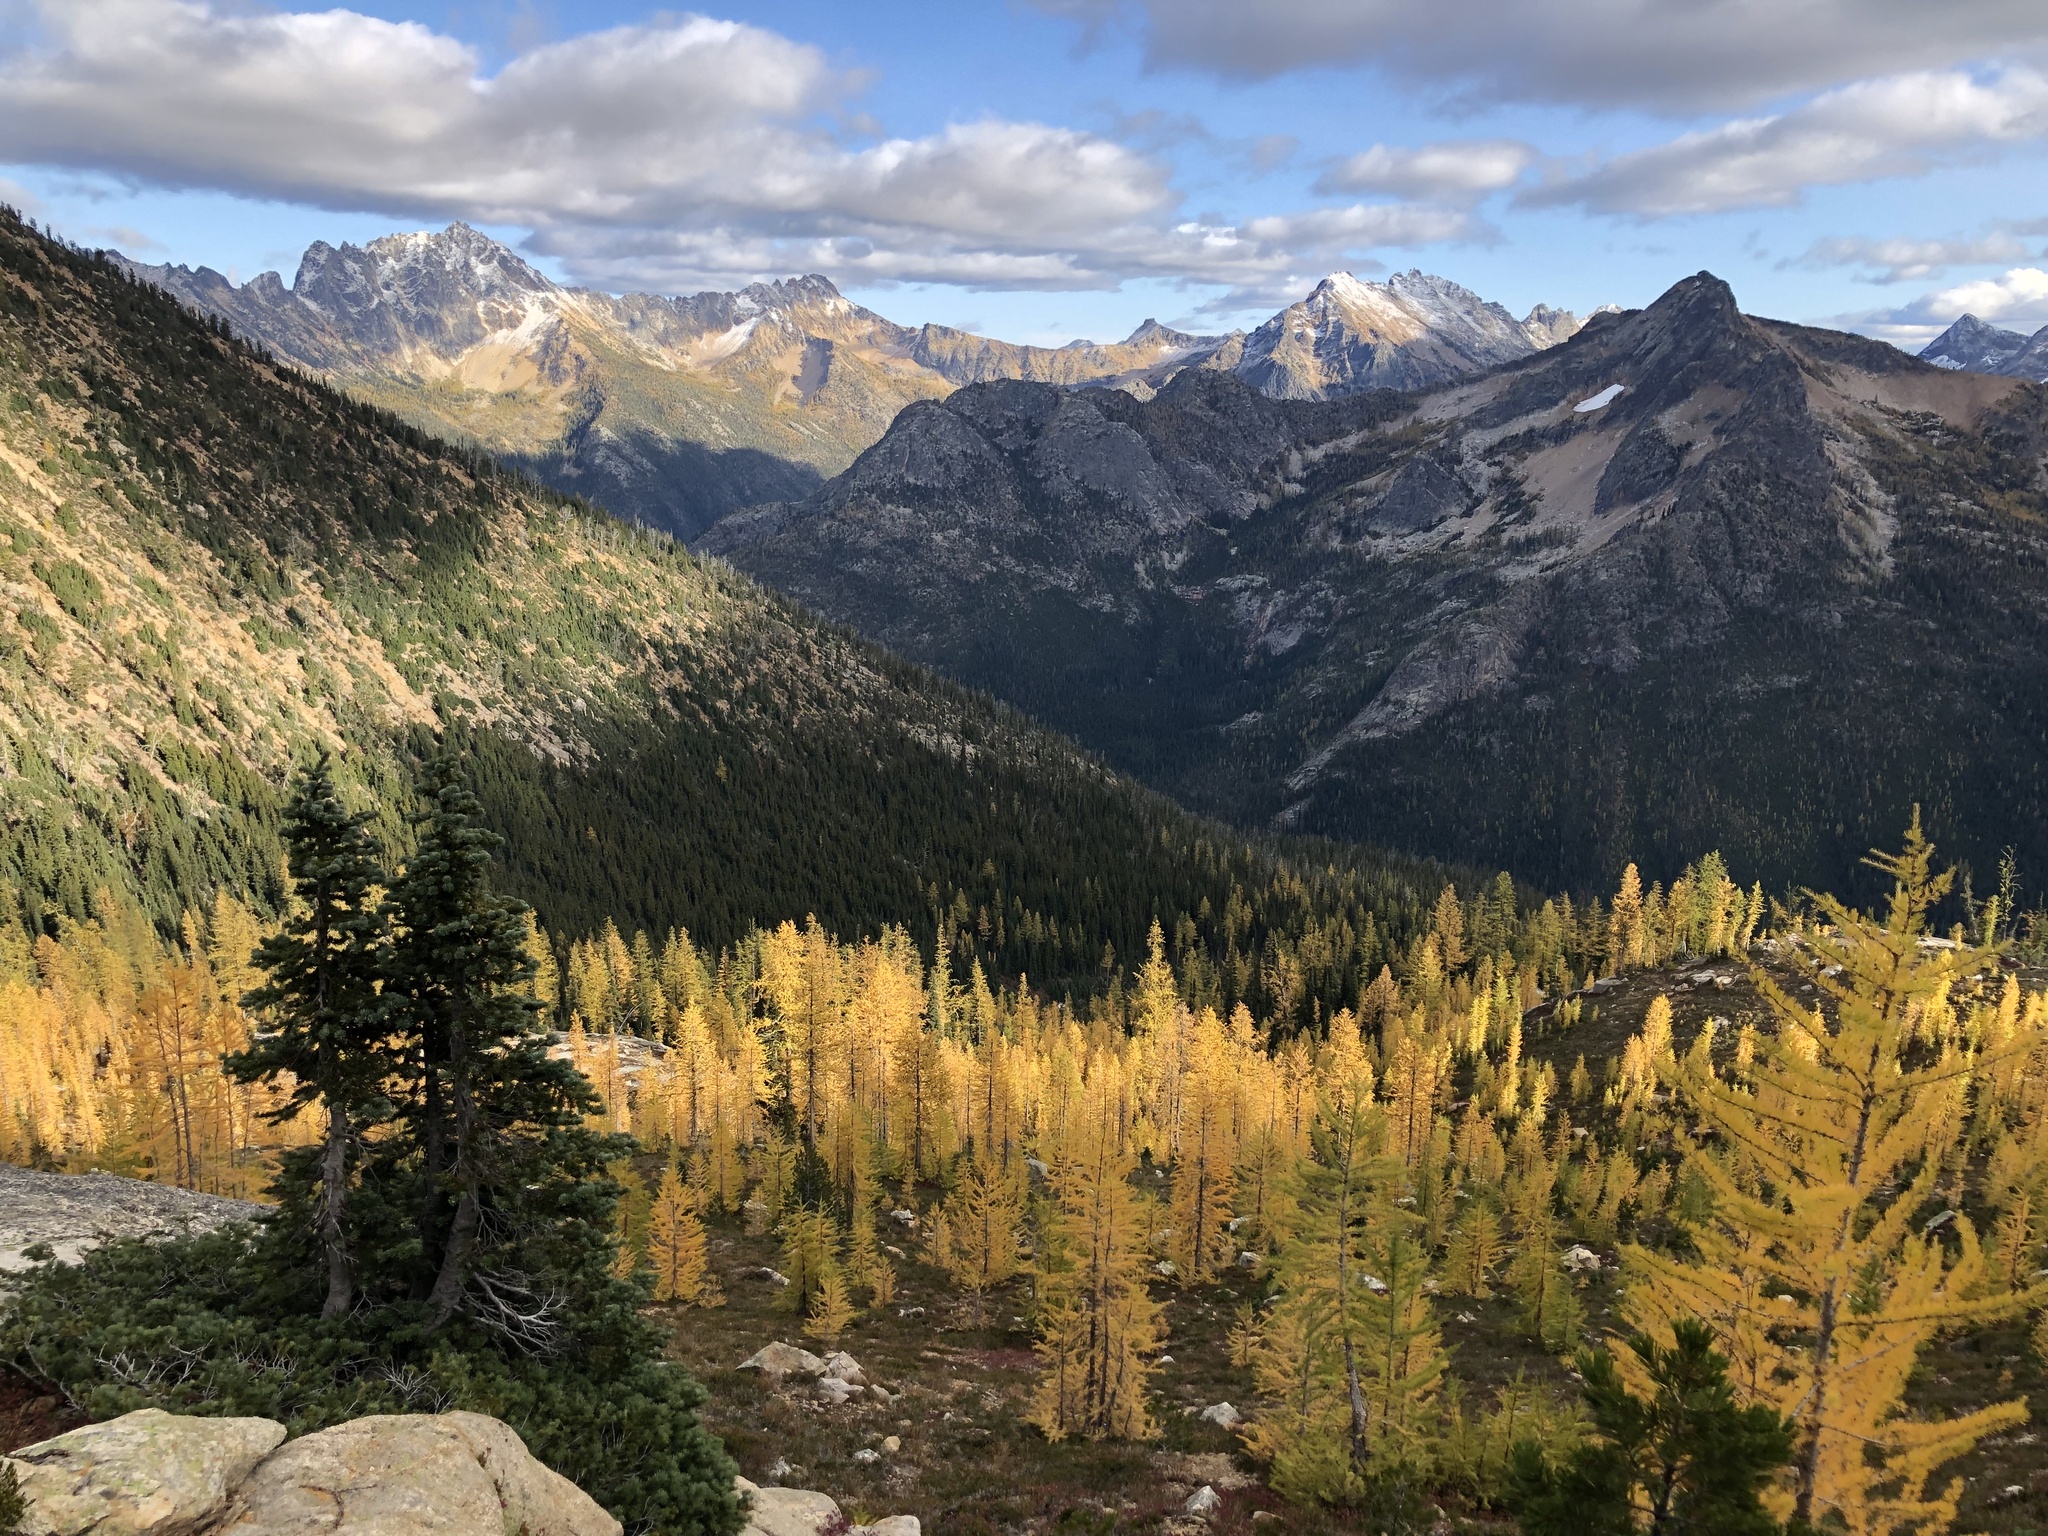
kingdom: Plantae
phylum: Tracheophyta
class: Pinopsida
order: Pinales
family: Pinaceae
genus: Abies
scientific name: Abies lasiocarpa
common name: Subalpine fir
